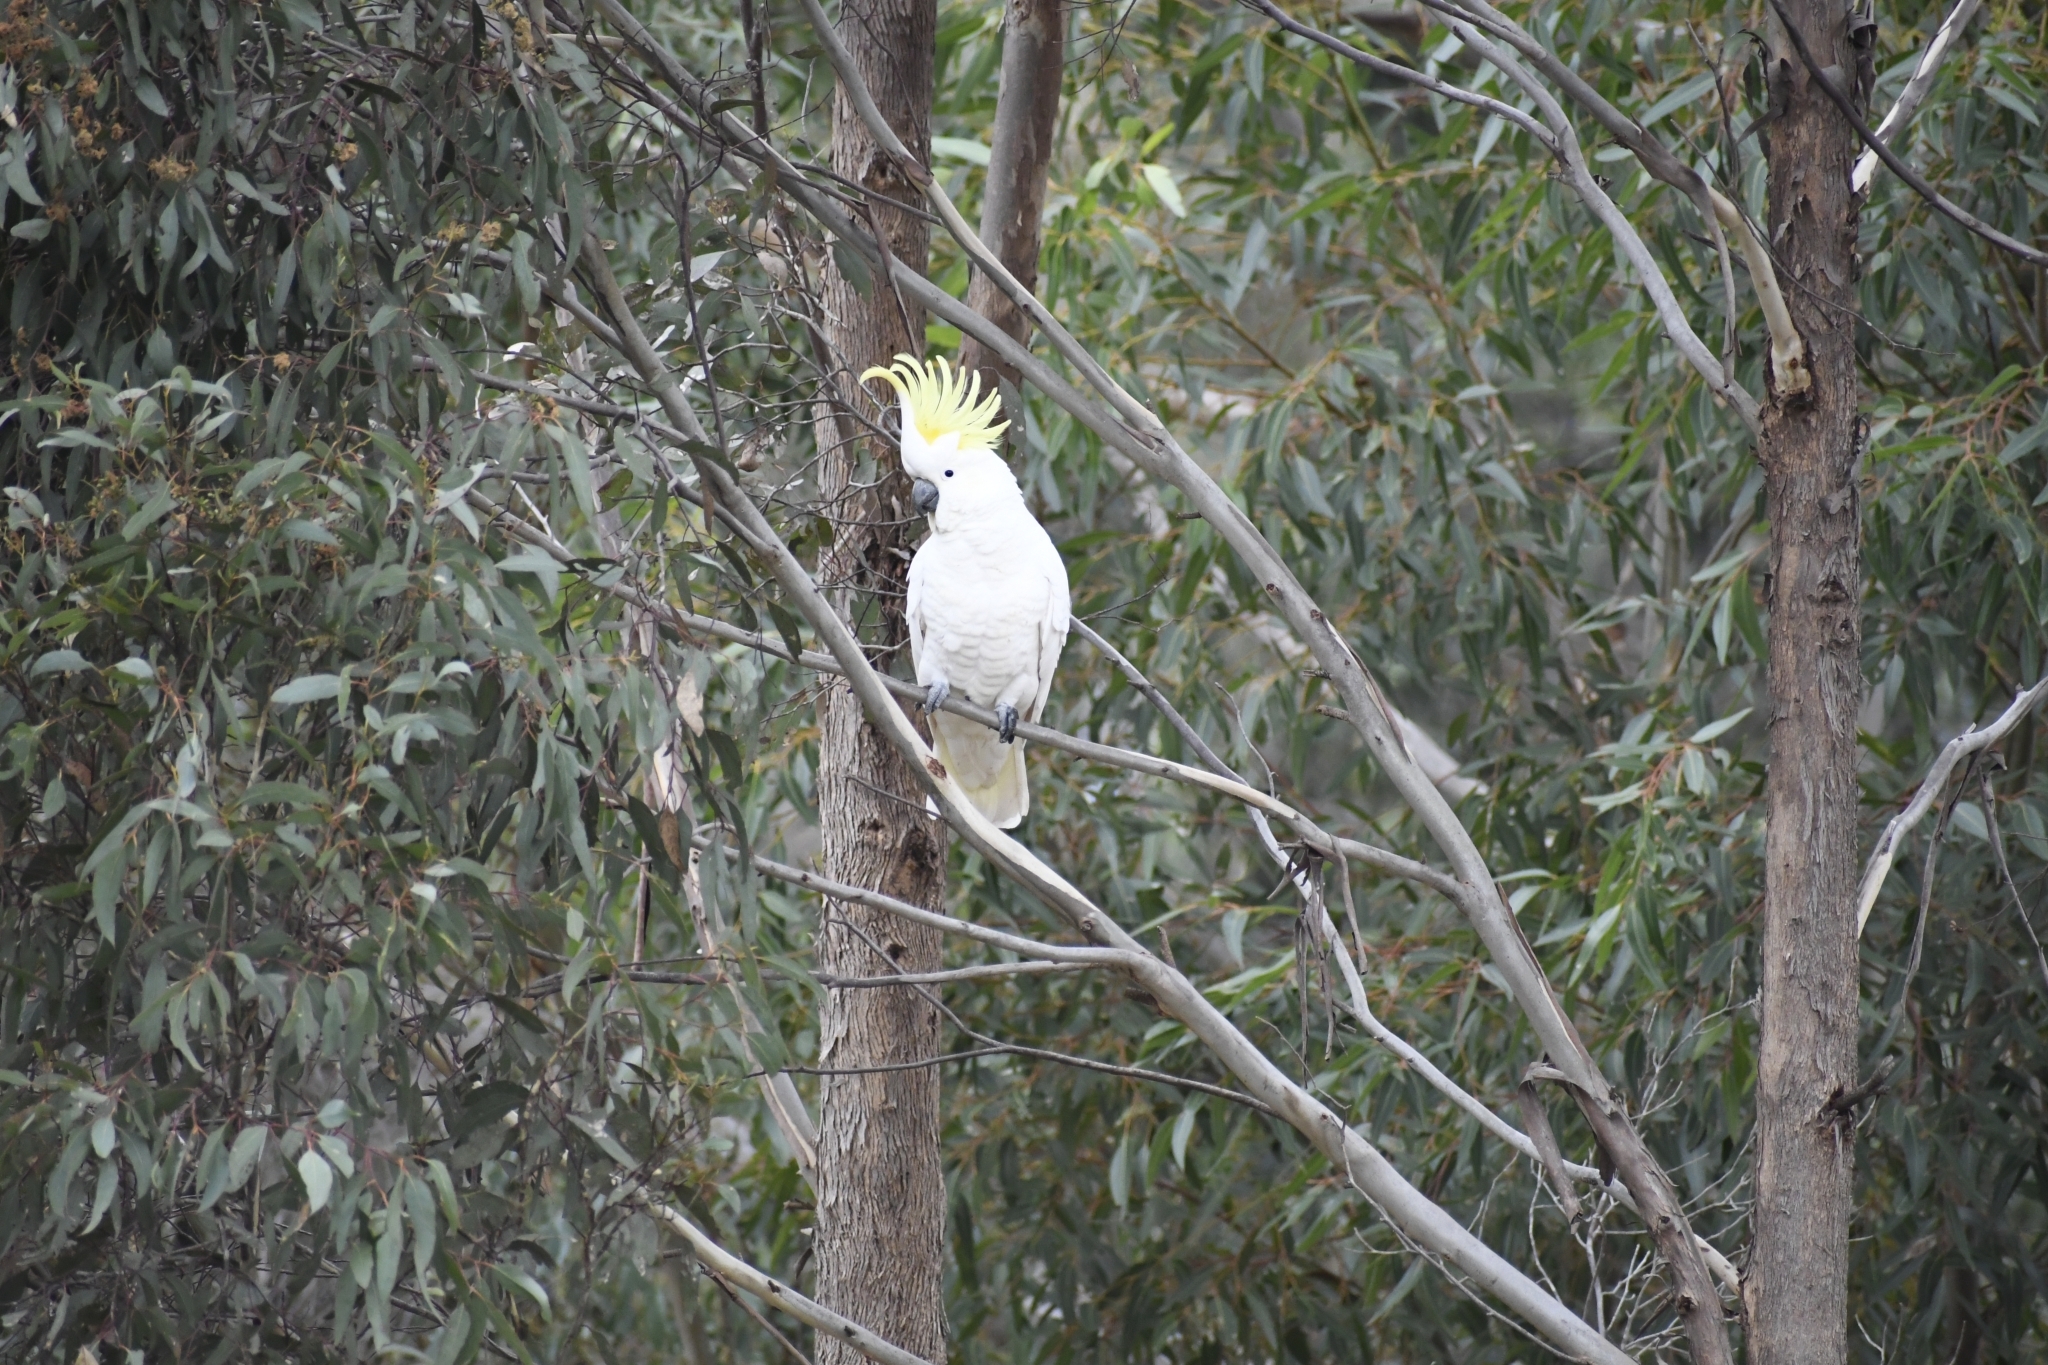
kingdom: Animalia
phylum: Chordata
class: Aves
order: Psittaciformes
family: Psittacidae
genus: Cacatua
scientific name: Cacatua galerita
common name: Sulphur-crested cockatoo
